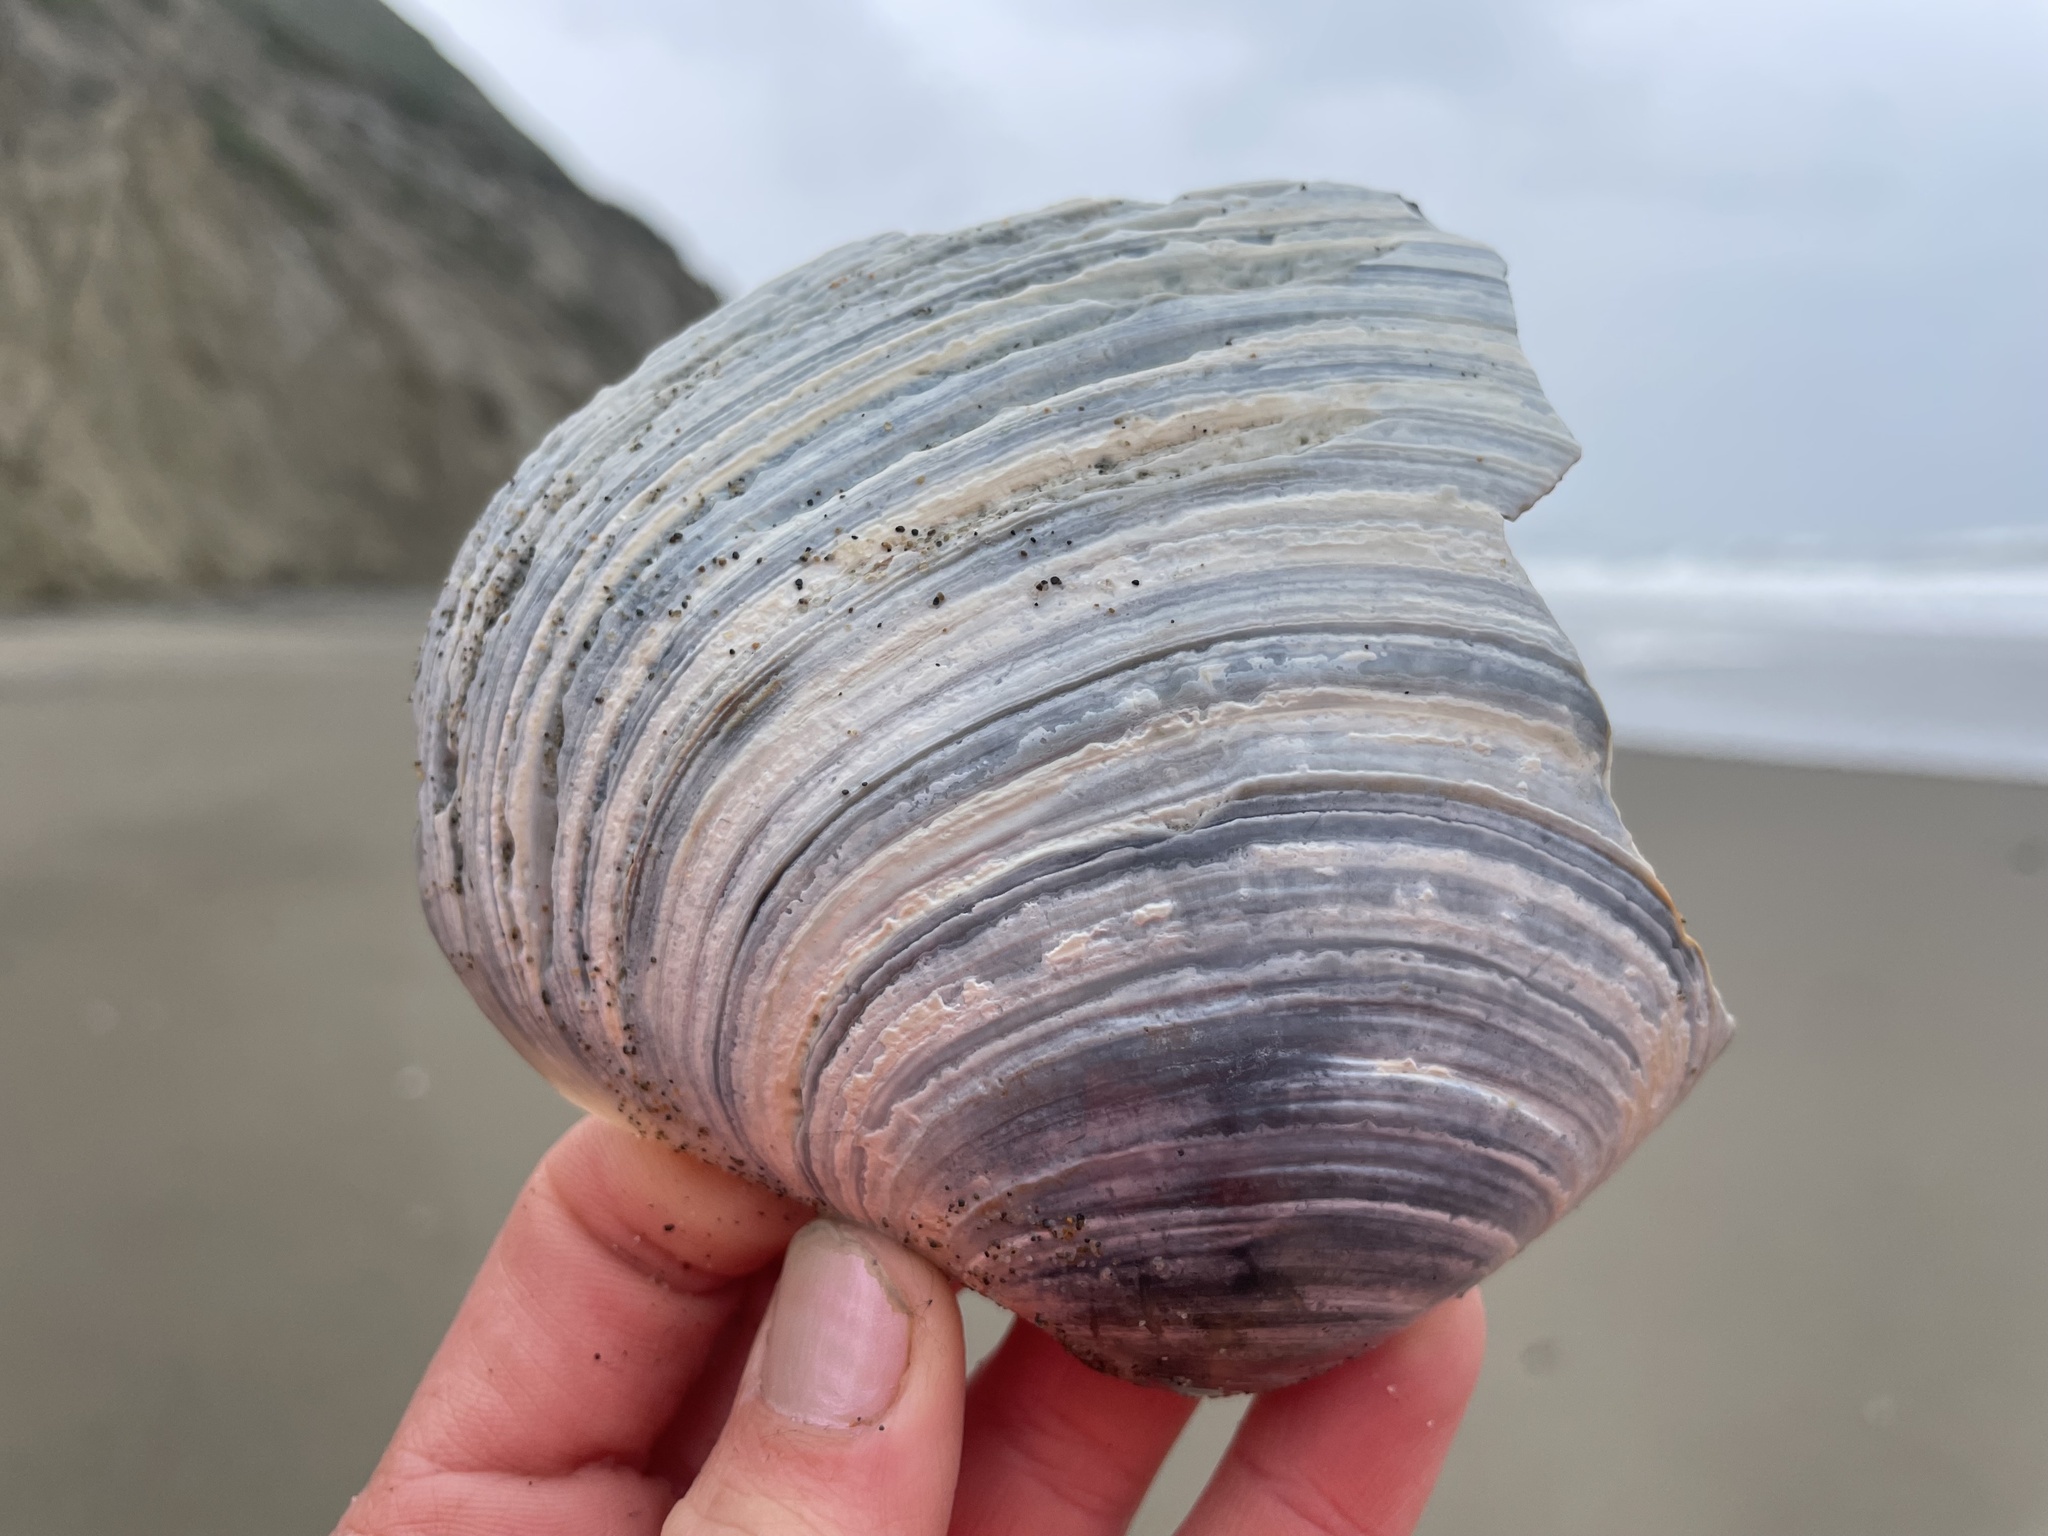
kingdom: Animalia
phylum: Mollusca
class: Bivalvia
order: Venerida
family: Mactridae
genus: Mactromeris
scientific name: Mactromeris catilliformis
